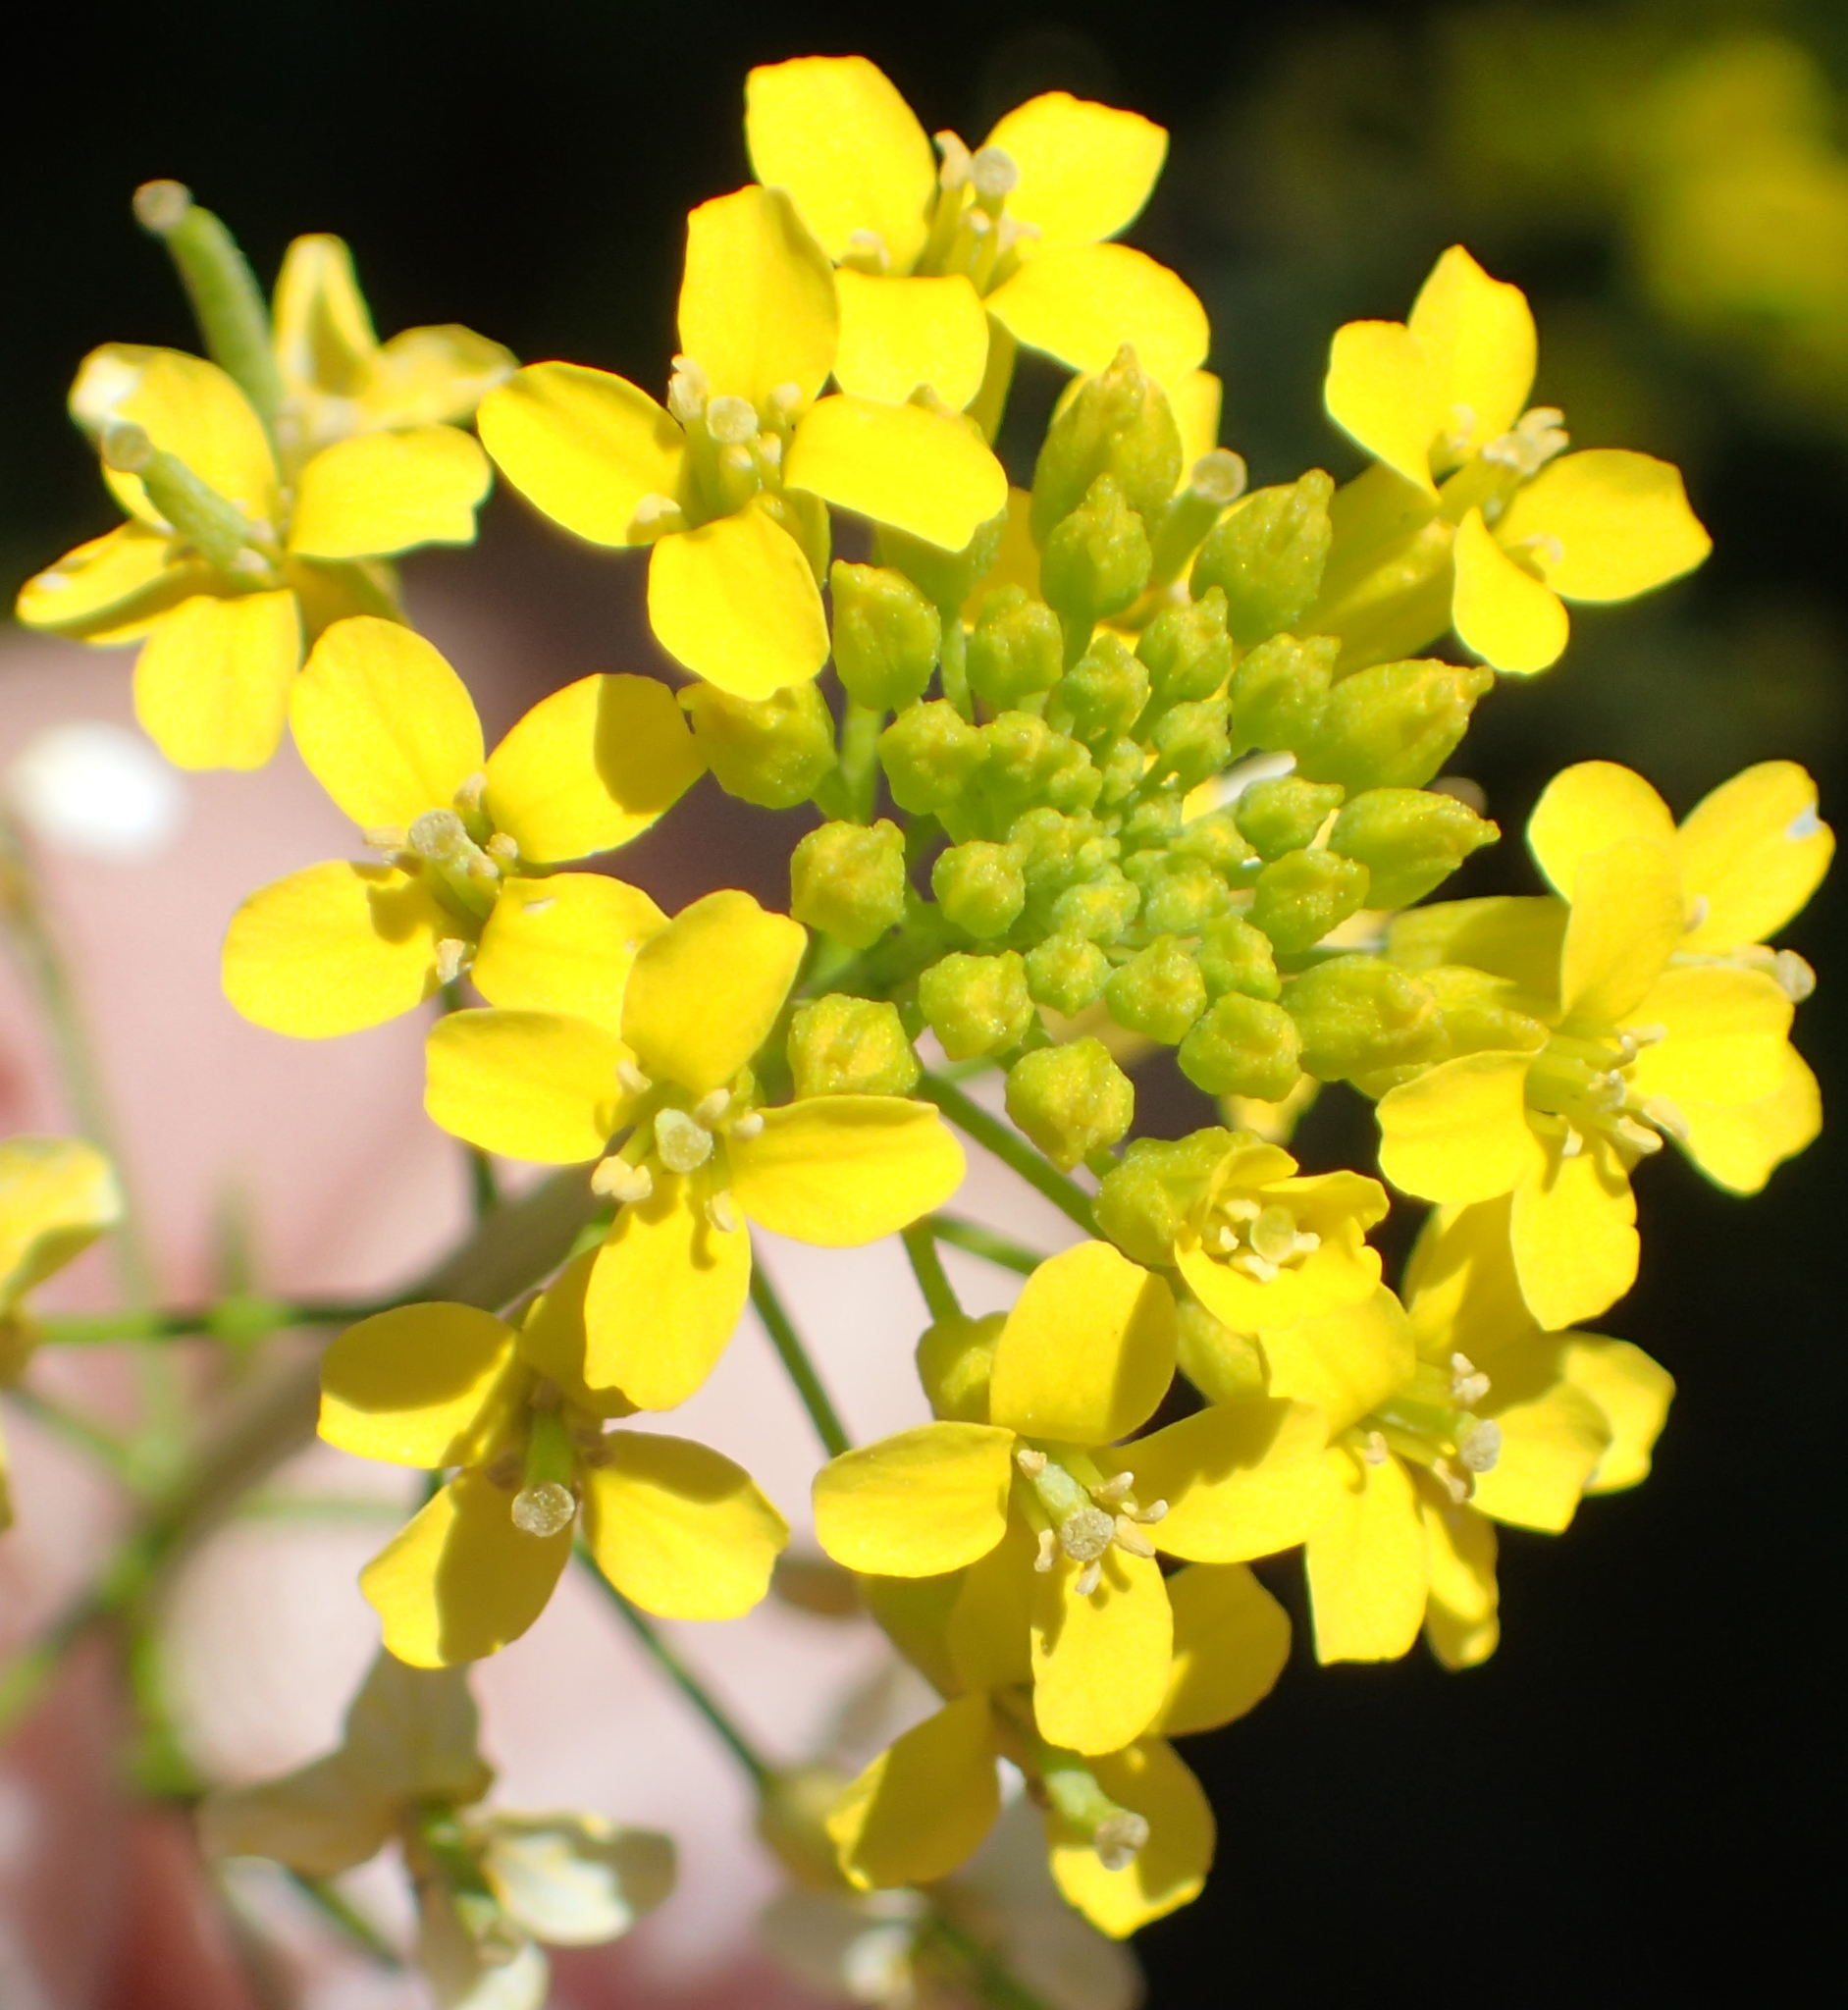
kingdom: Plantae
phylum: Tracheophyta
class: Magnoliopsida
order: Brassicales
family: Brassicaceae
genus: Erysimum
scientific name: Erysimum cheiranthoides
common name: Treacle mustard
